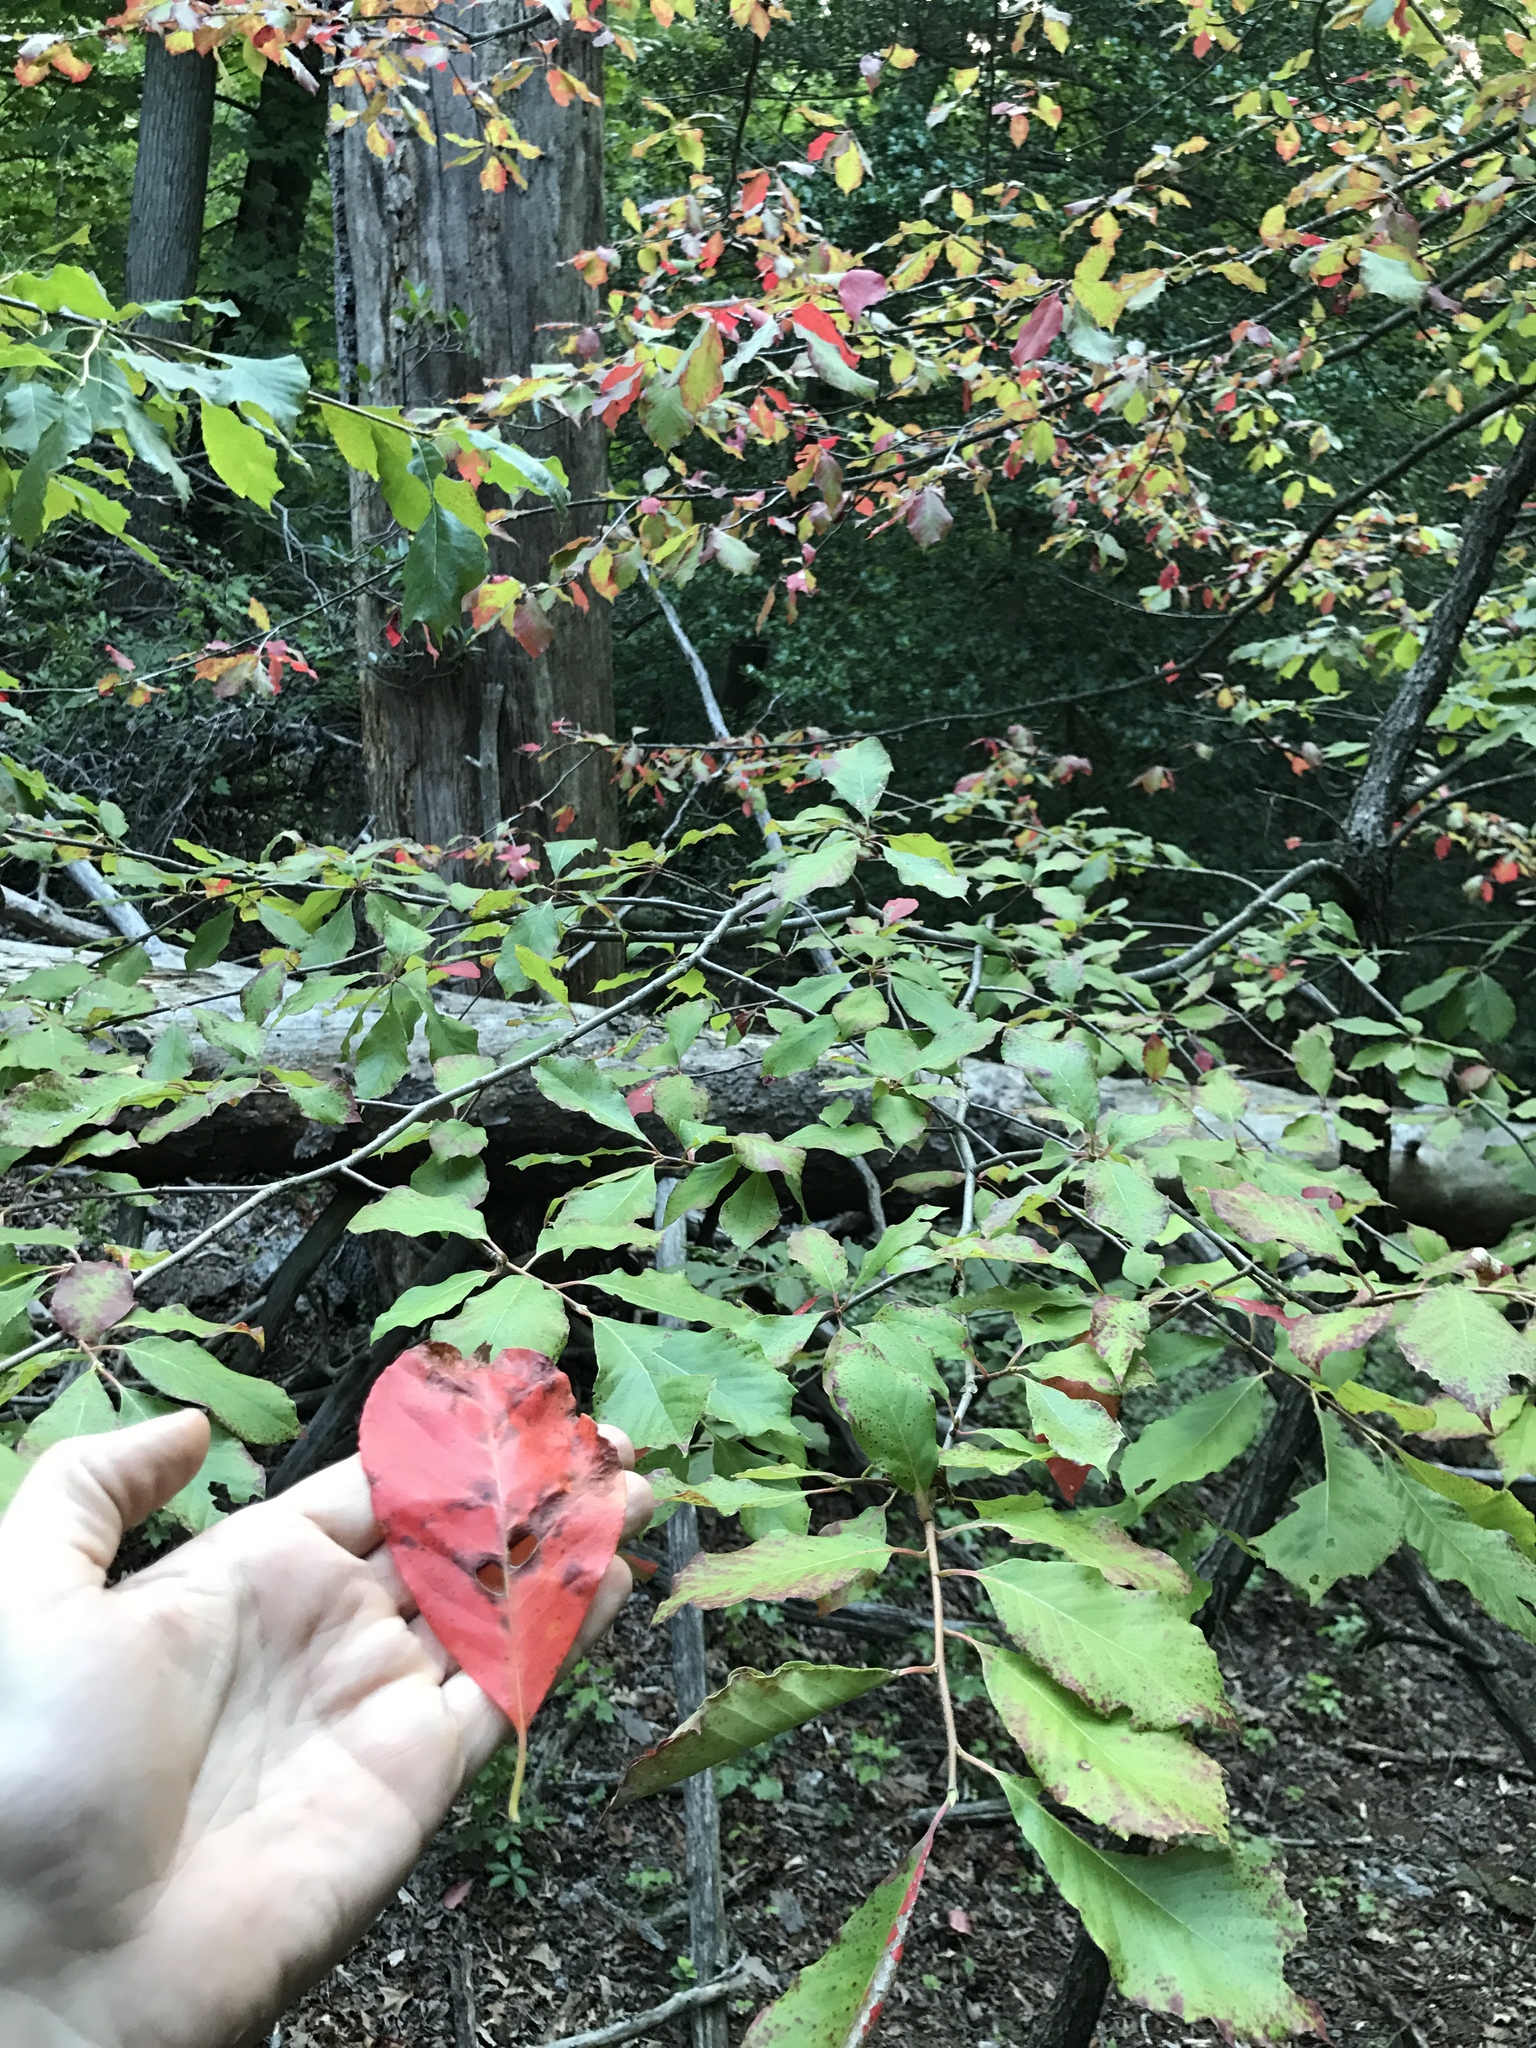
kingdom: Plantae
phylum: Tracheophyta
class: Magnoliopsida
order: Cornales
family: Nyssaceae
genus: Nyssa
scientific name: Nyssa sylvatica
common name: Black tupelo
